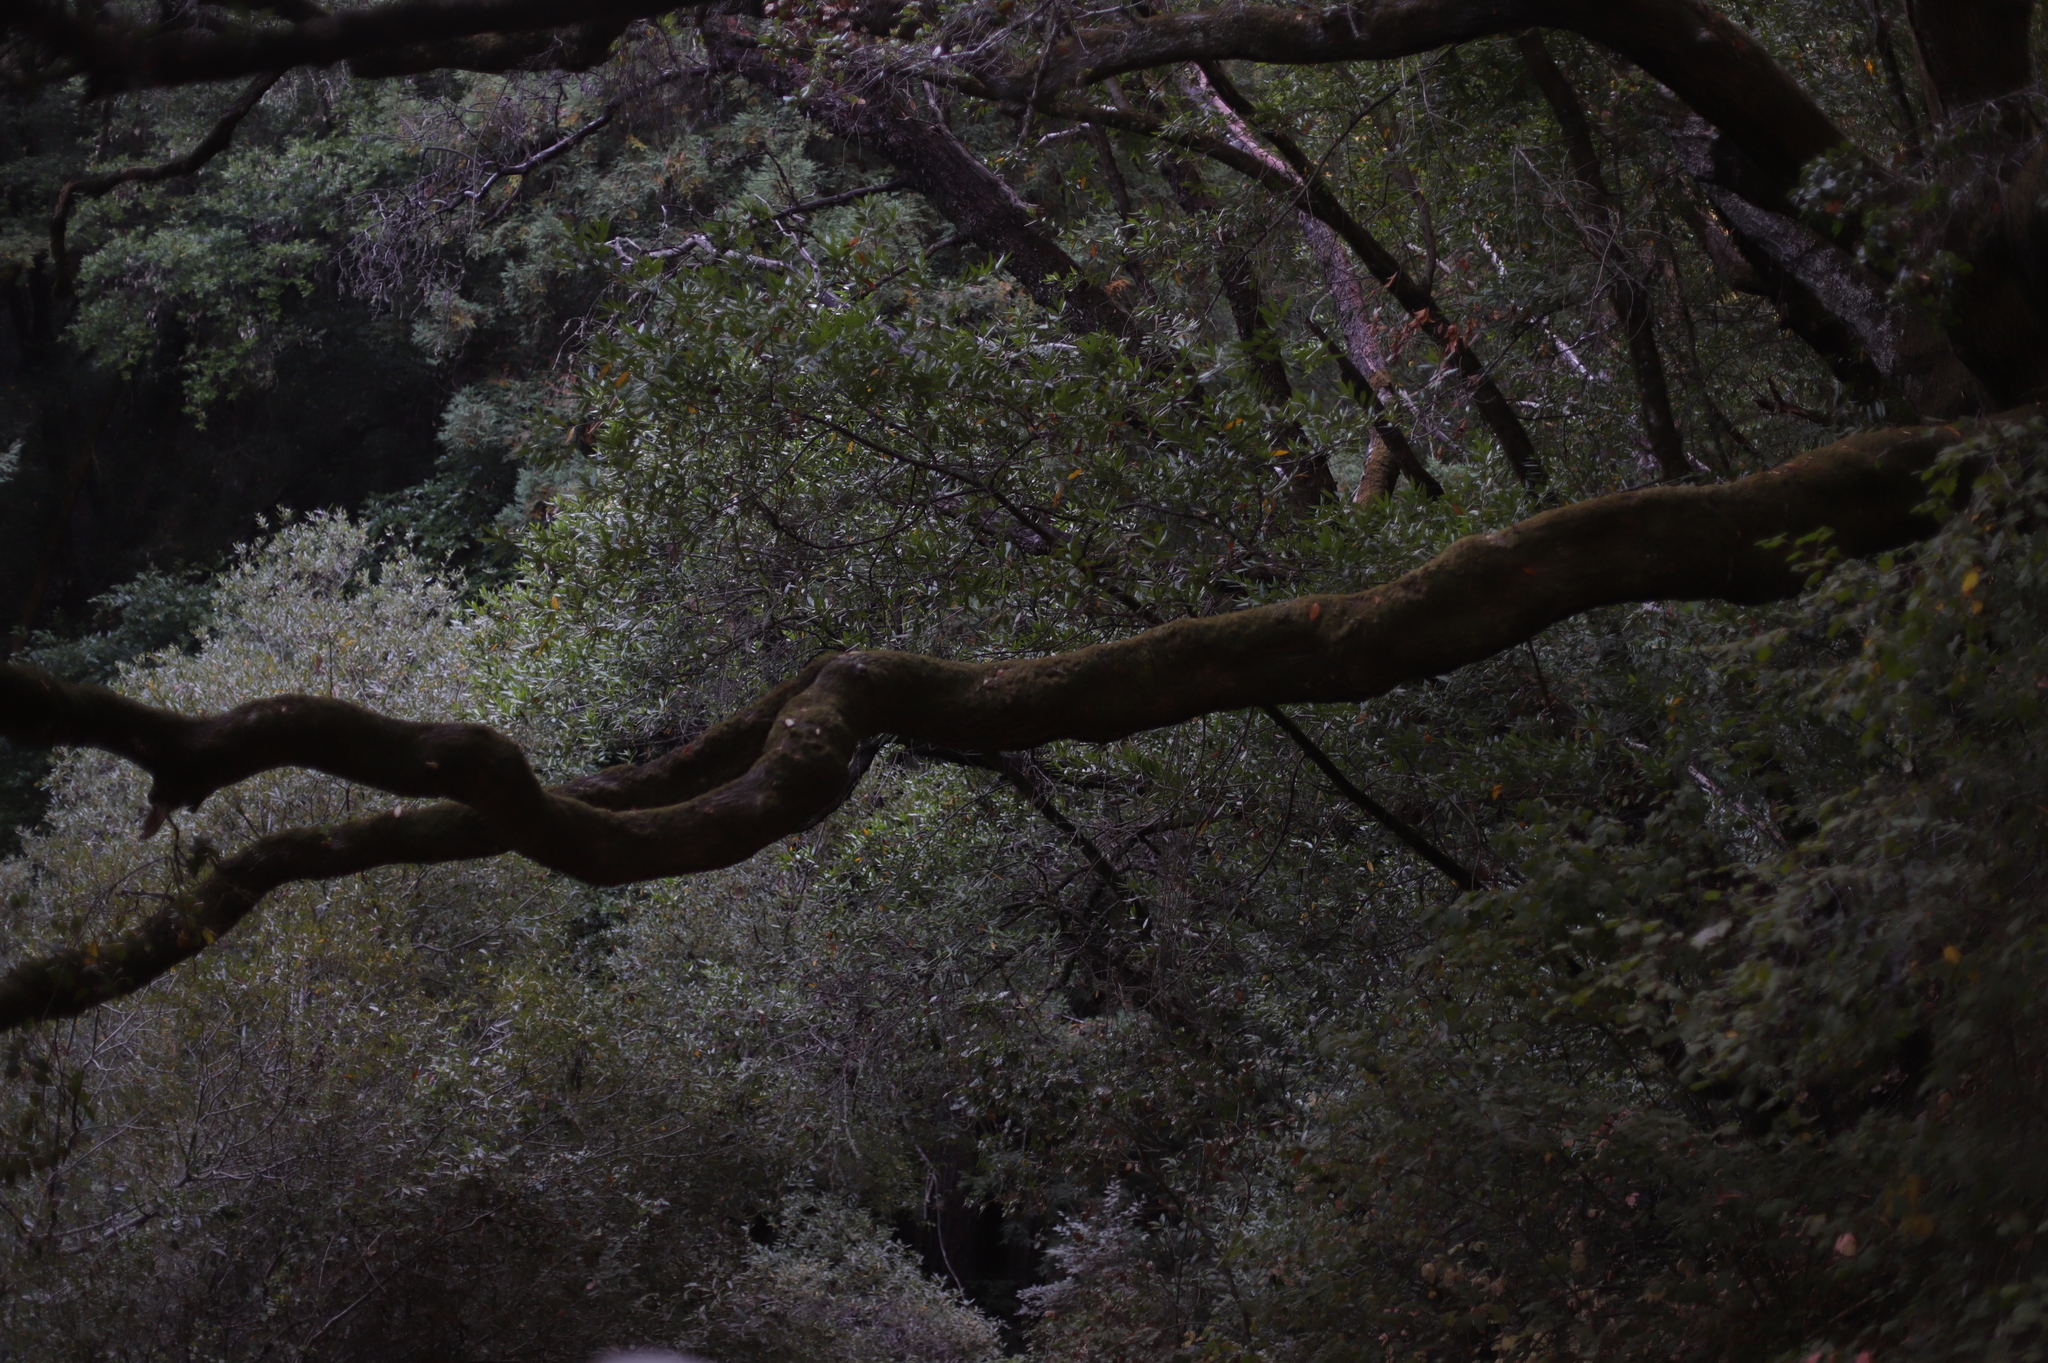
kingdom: Plantae
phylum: Tracheophyta
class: Magnoliopsida
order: Laurales
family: Lauraceae
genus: Umbellularia
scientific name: Umbellularia californica
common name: California bay
